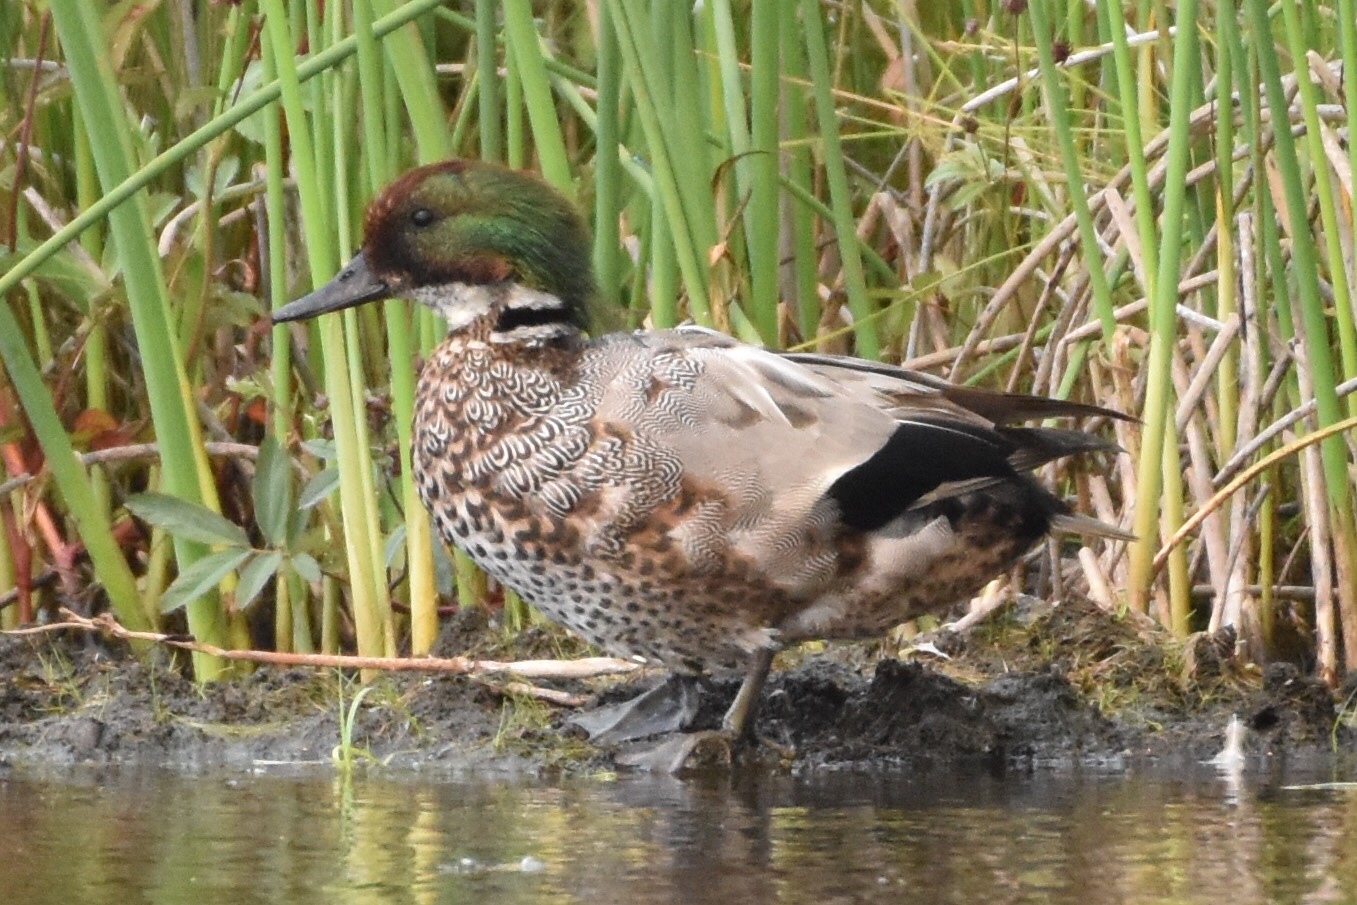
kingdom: Animalia
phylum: Chordata
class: Aves
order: Anseriformes
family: Anatidae
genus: Mareca
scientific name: Mareca falcata
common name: Falcated duck
